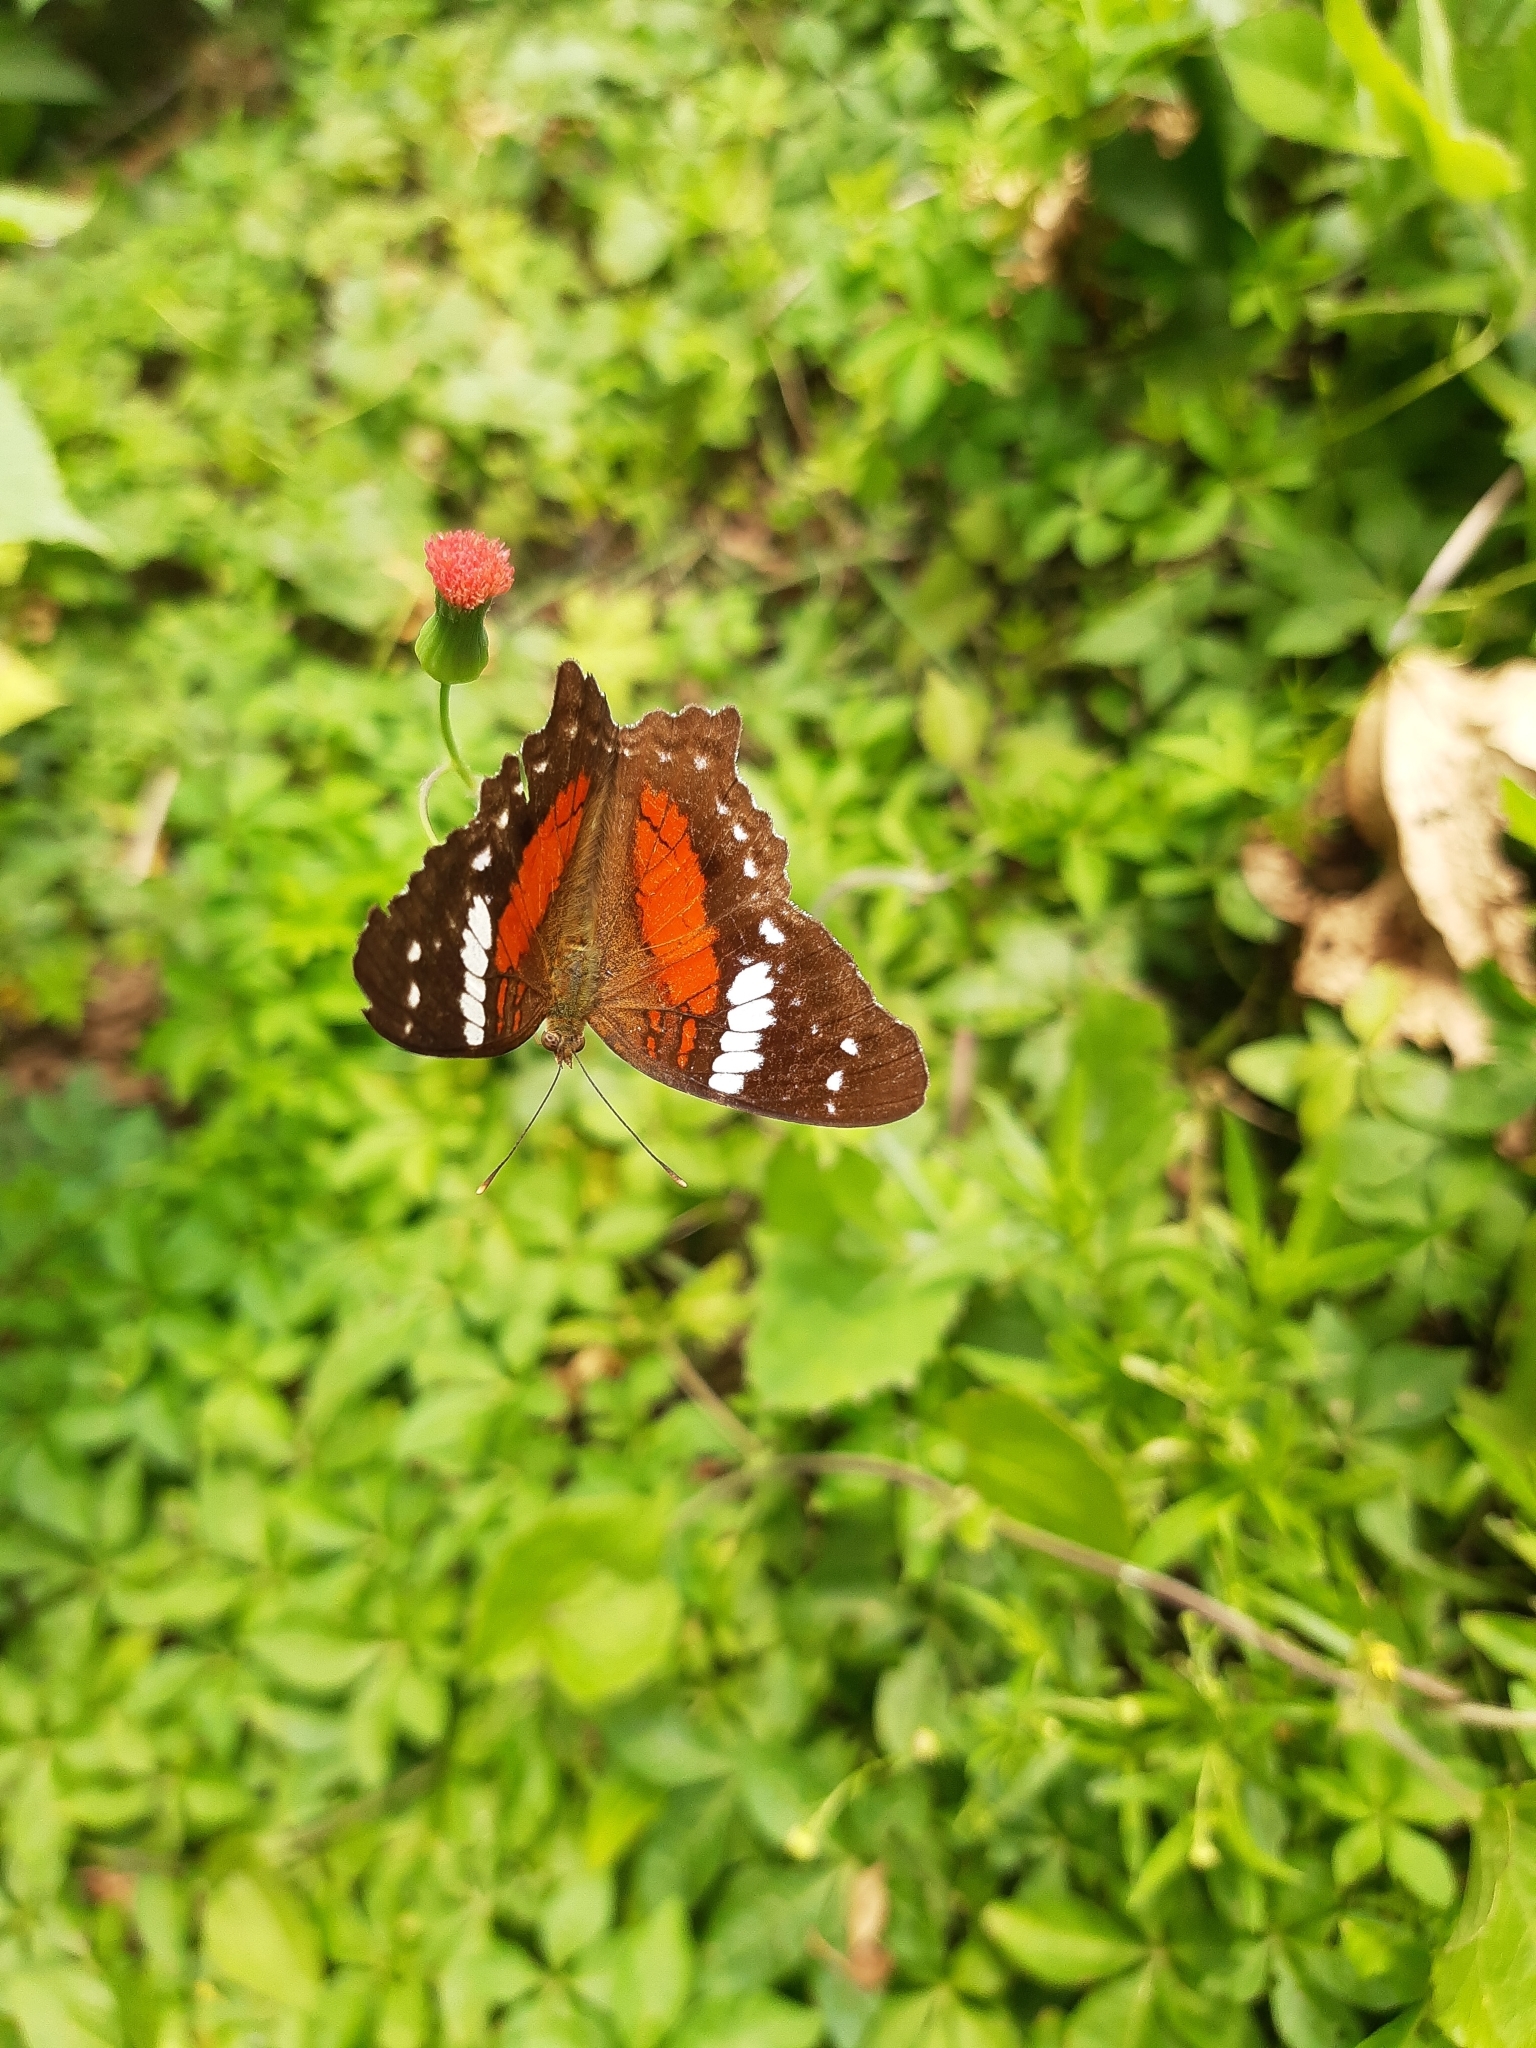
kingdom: Animalia
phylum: Arthropoda
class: Insecta
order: Lepidoptera
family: Nymphalidae
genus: Anartia
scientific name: Anartia amathea
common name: Red peacock
